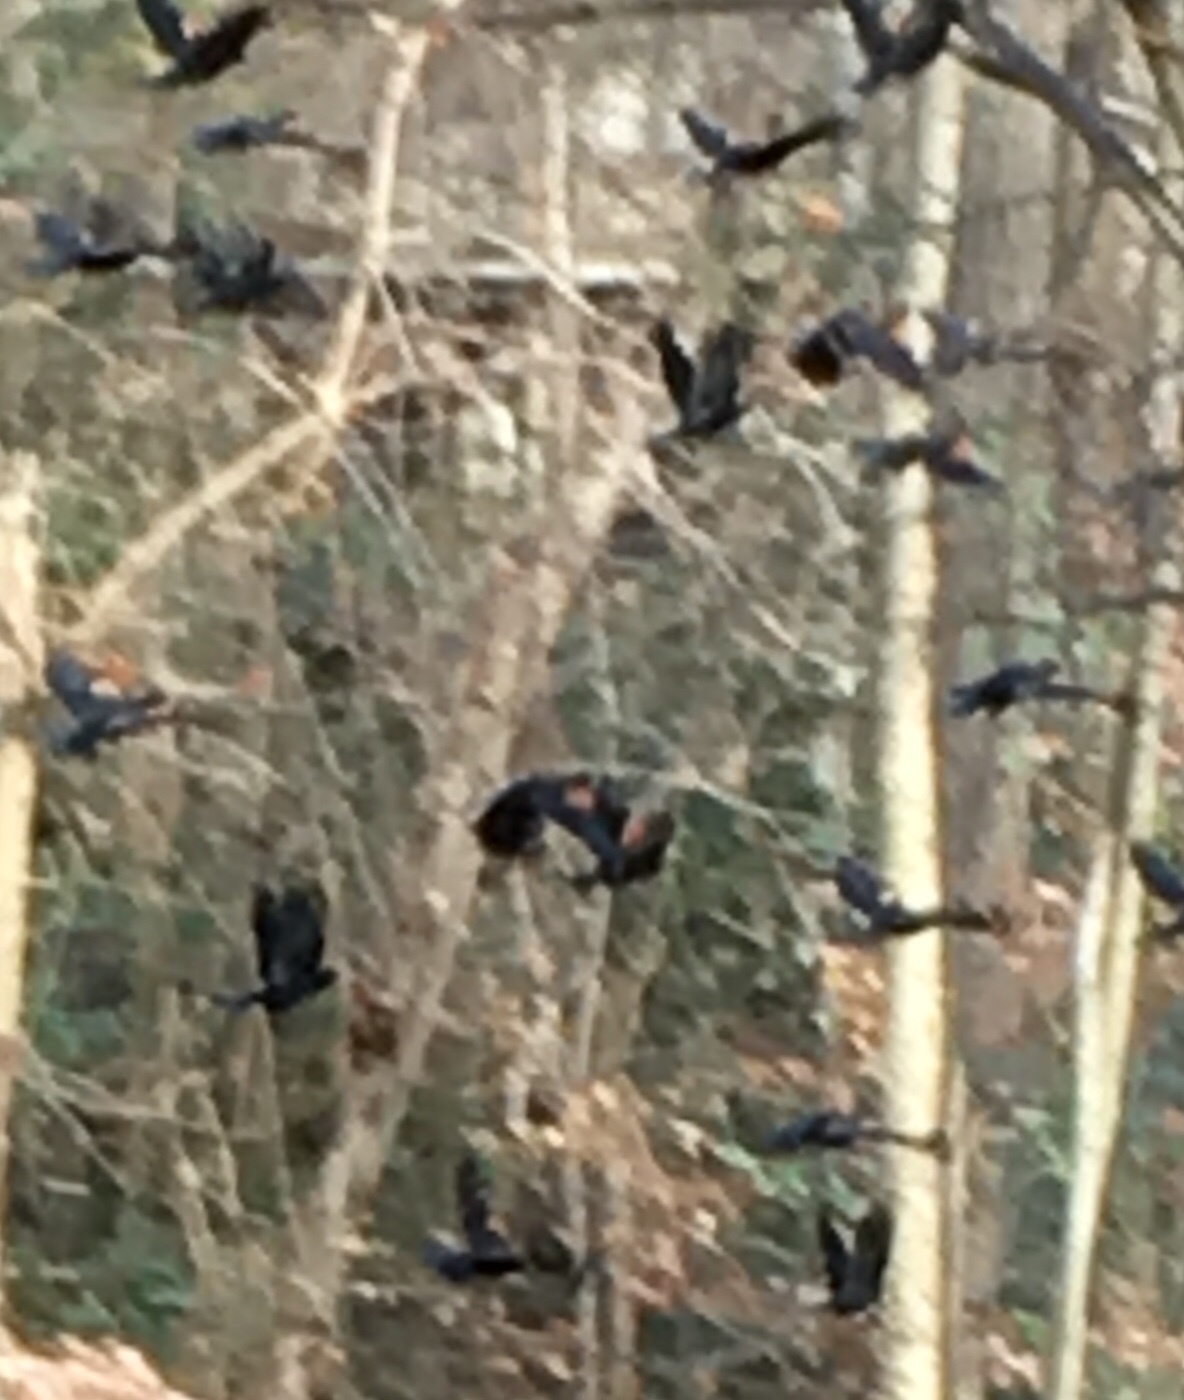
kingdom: Animalia
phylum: Chordata
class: Aves
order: Passeriformes
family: Icteridae
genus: Agelaius
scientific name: Agelaius phoeniceus
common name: Red-winged blackbird
